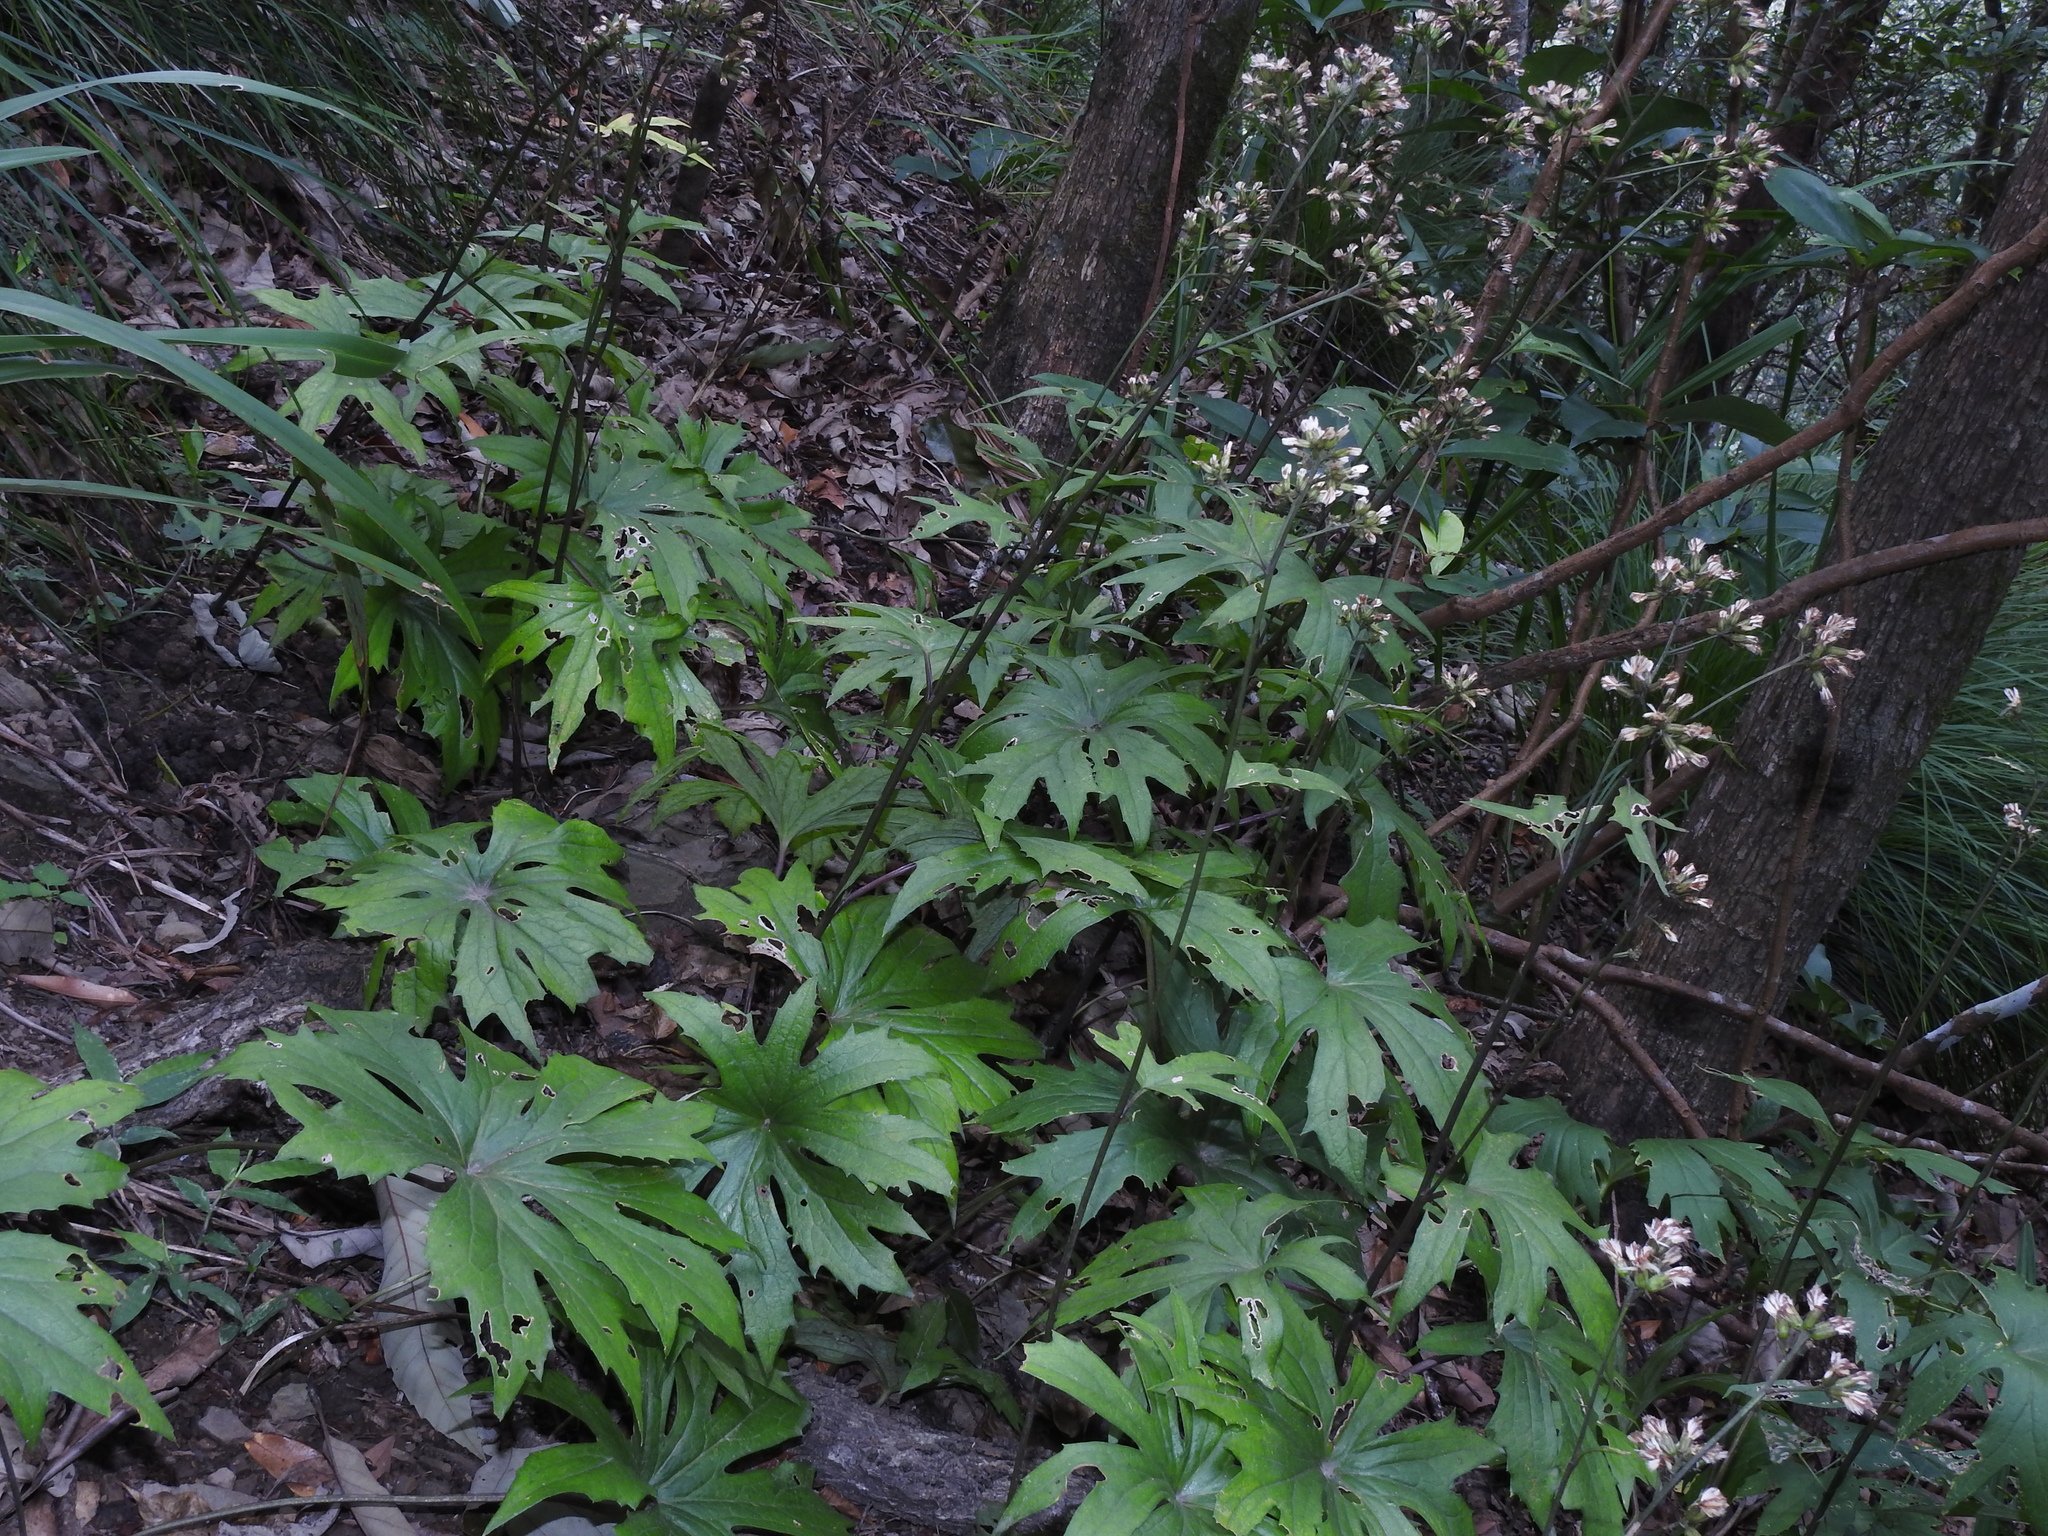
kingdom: Plantae
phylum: Tracheophyta
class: Magnoliopsida
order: Asterales
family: Asteraceae
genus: Syneilesis
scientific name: Syneilesis subglabrata
